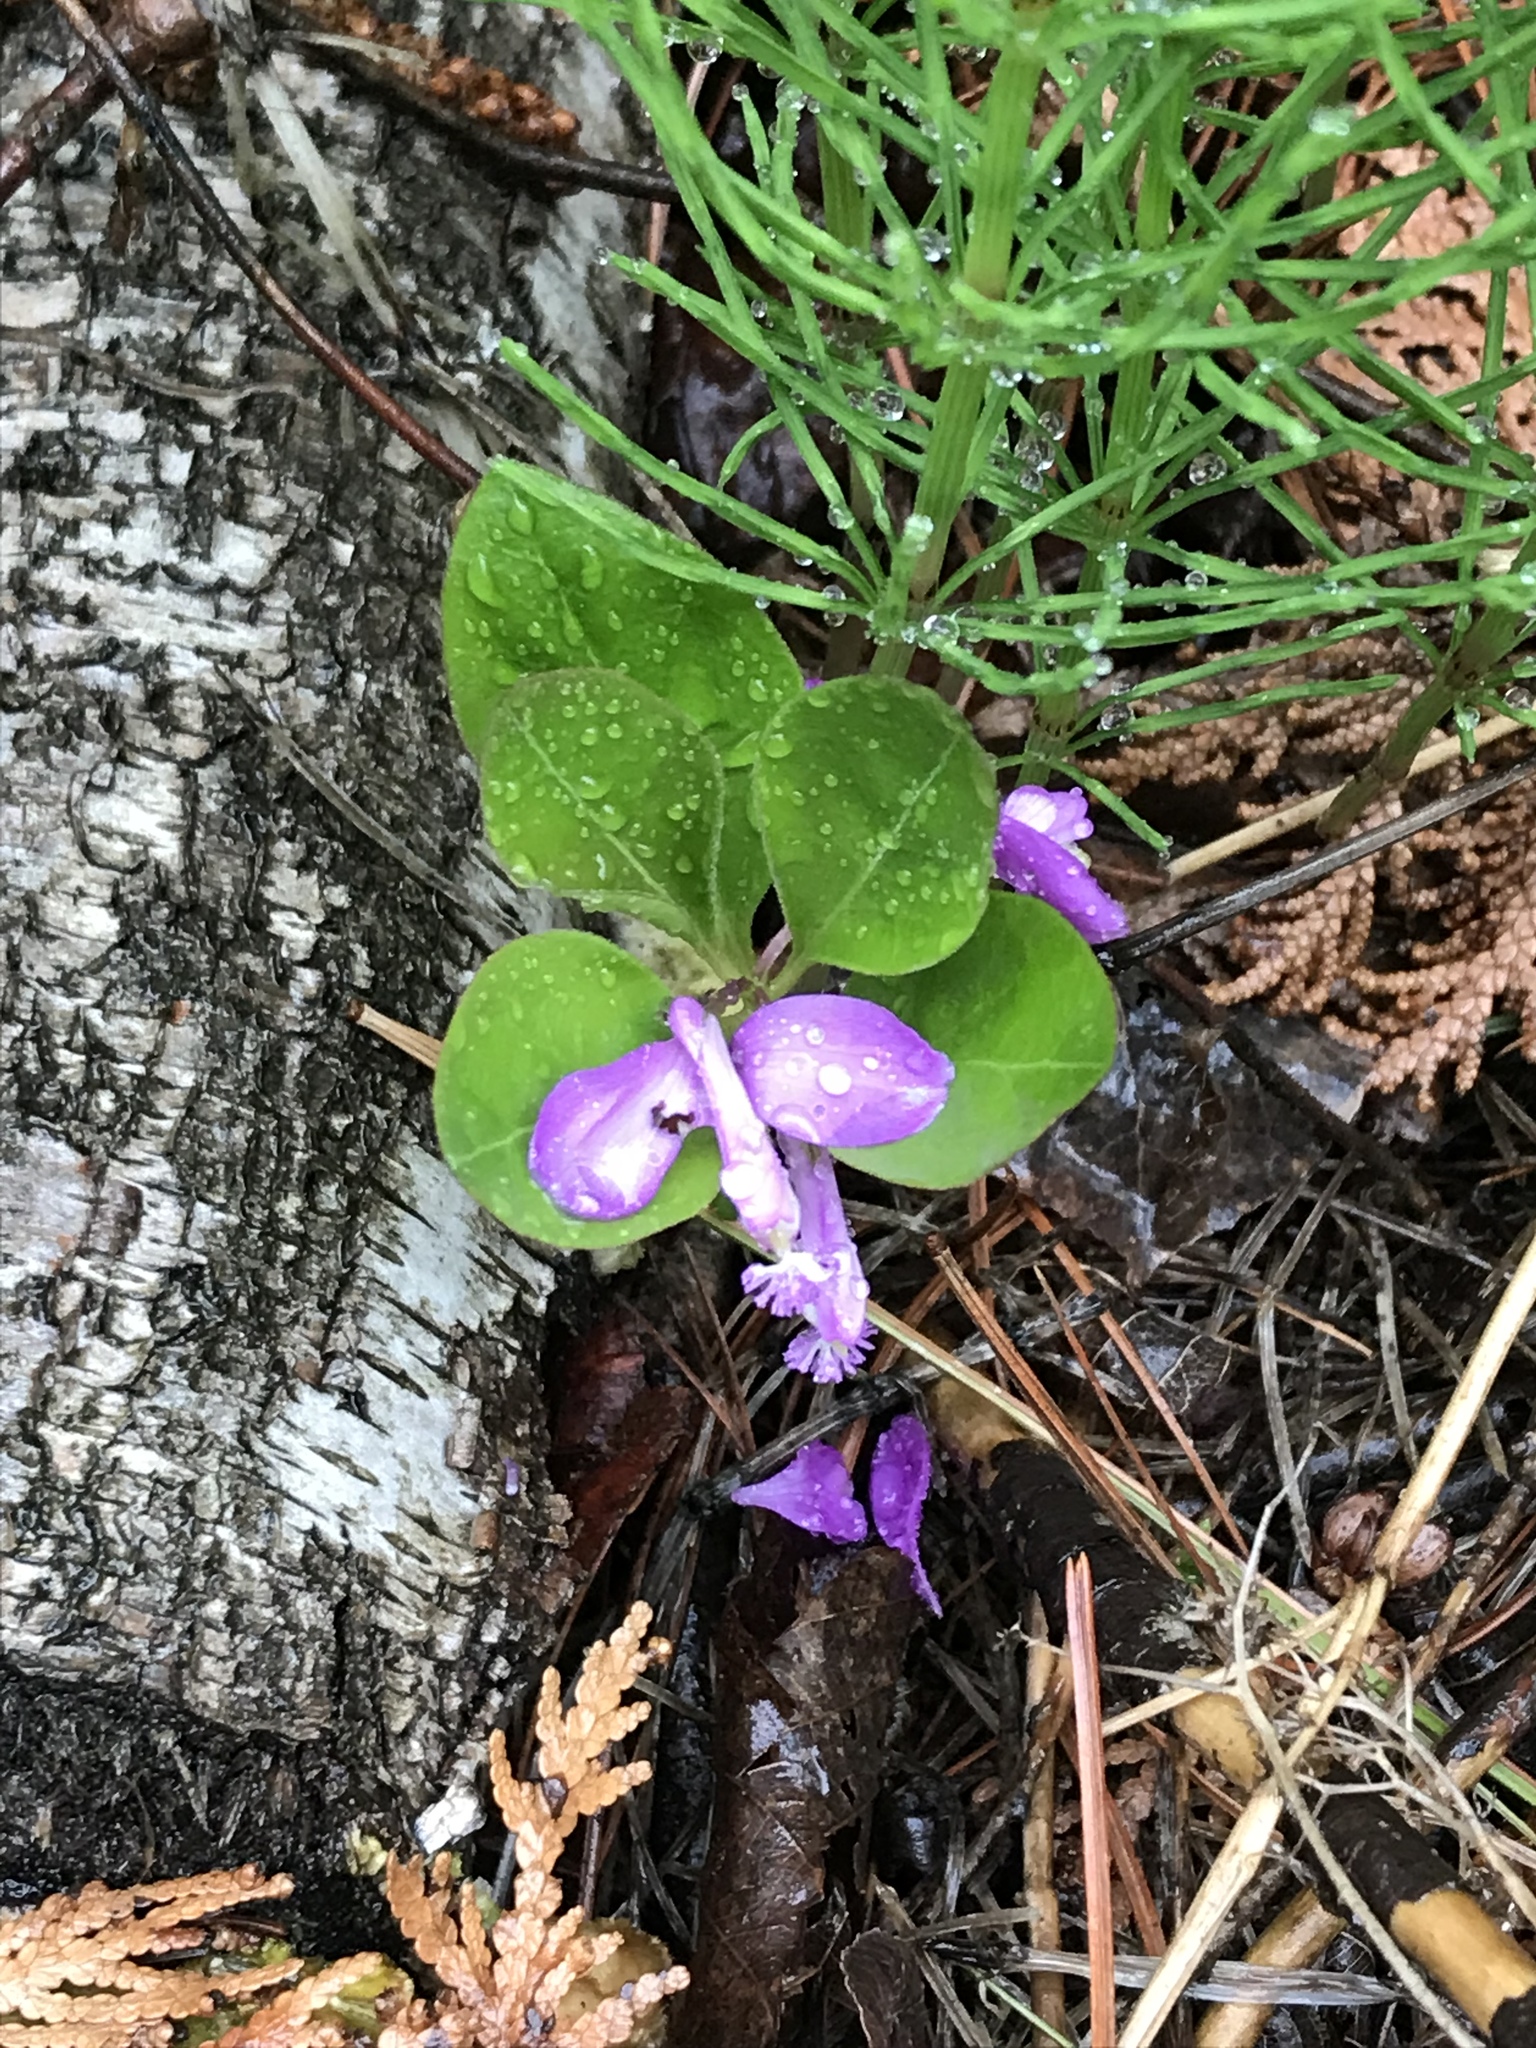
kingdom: Plantae
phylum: Tracheophyta
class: Magnoliopsida
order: Fabales
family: Polygalaceae
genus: Polygaloides
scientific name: Polygaloides paucifolia
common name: Bird-on-the-wing
